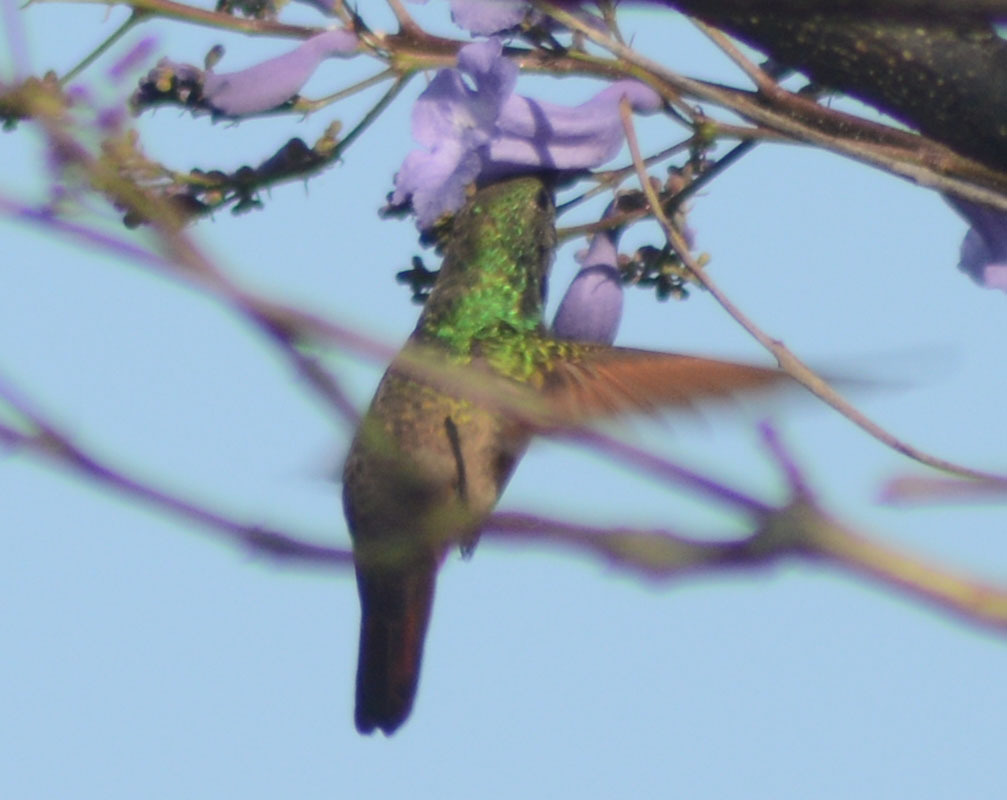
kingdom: Animalia
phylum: Chordata
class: Aves
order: Apodiformes
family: Trochilidae
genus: Saucerottia
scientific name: Saucerottia beryllina
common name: Berylline hummingbird
